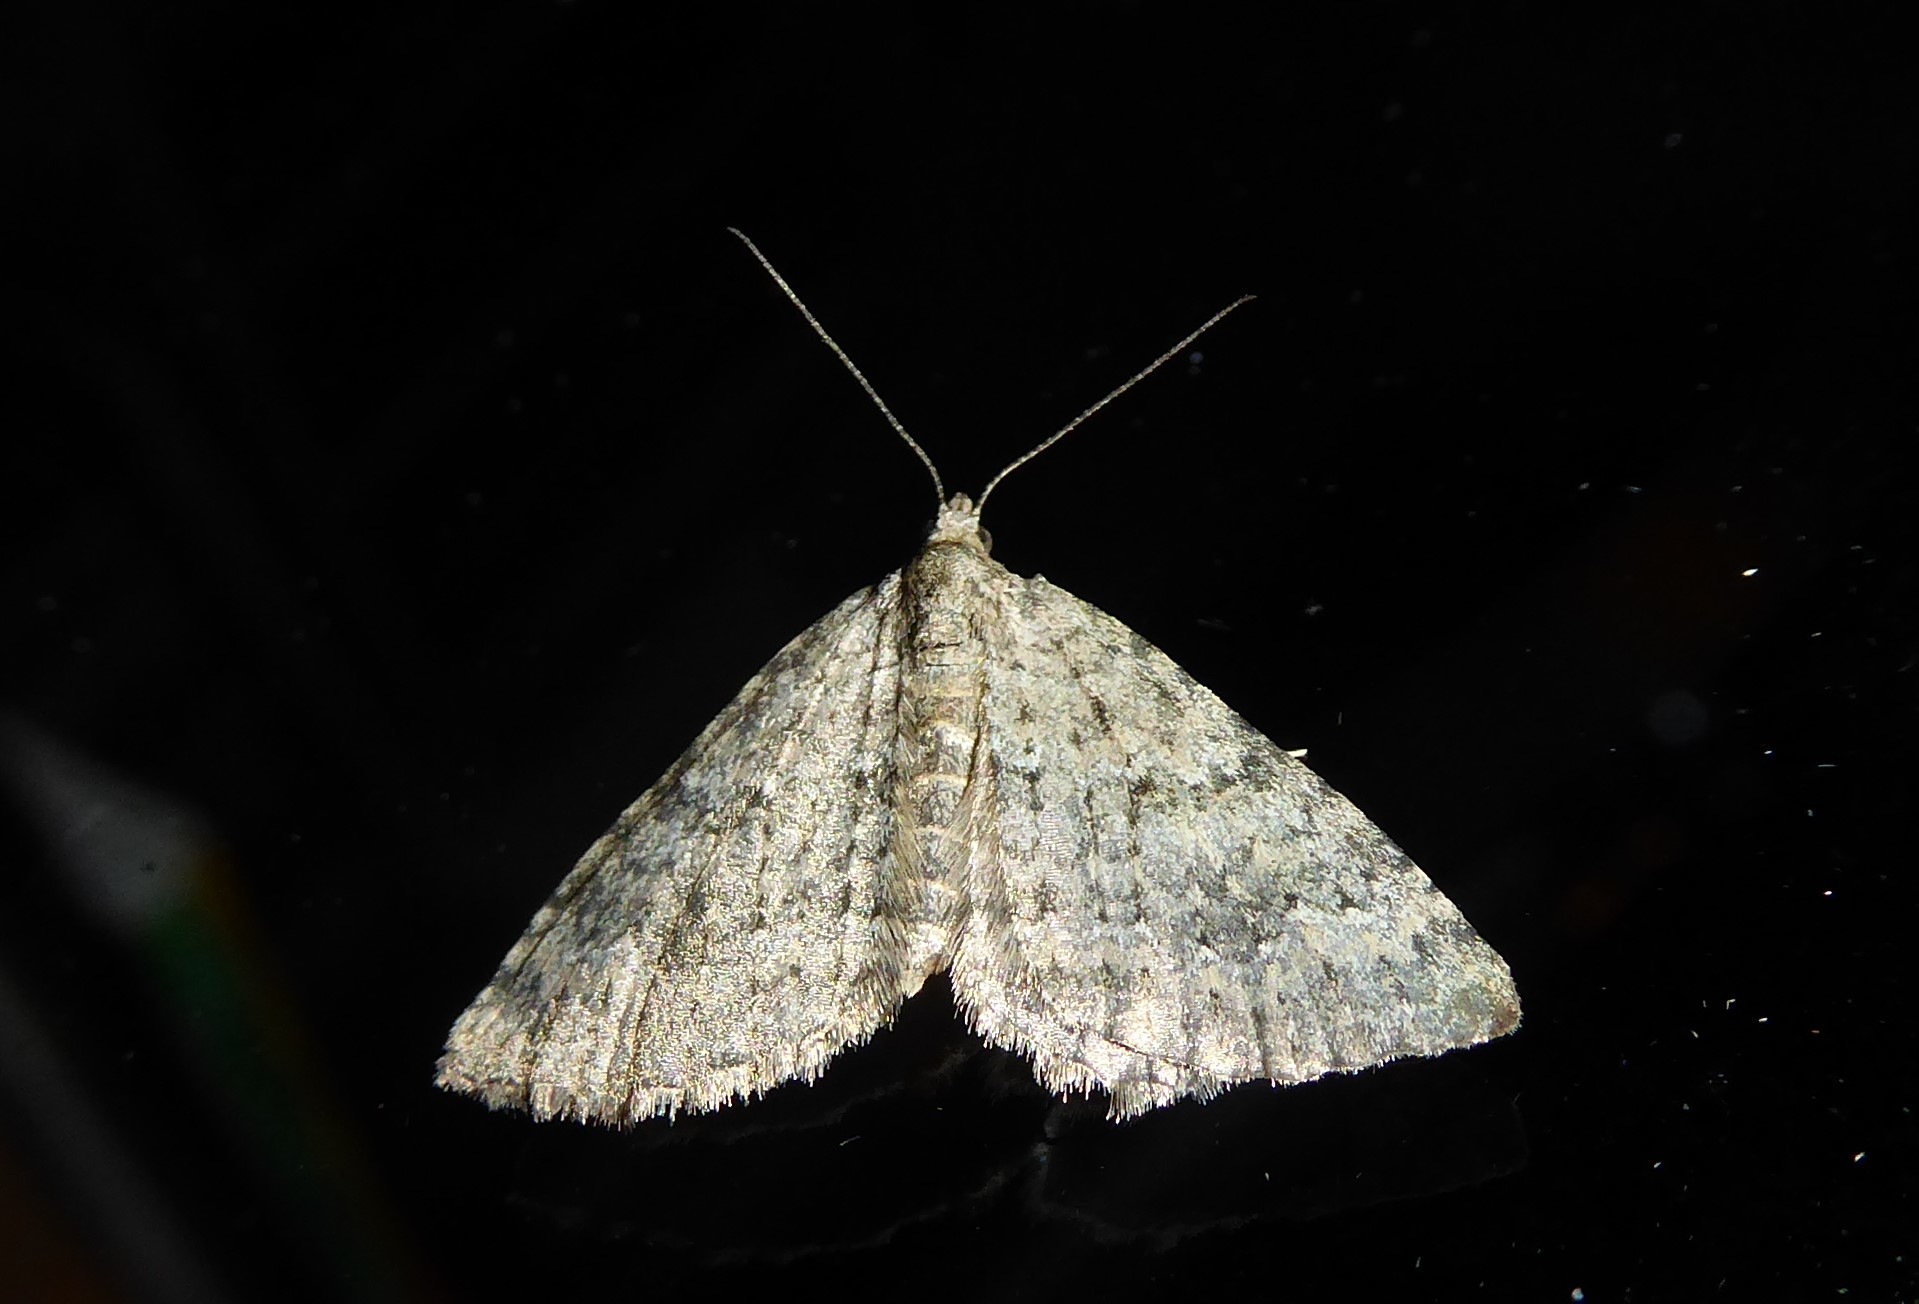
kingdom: Animalia
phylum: Arthropoda
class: Insecta
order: Lepidoptera
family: Geometridae
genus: Helastia
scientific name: Helastia corcularia
